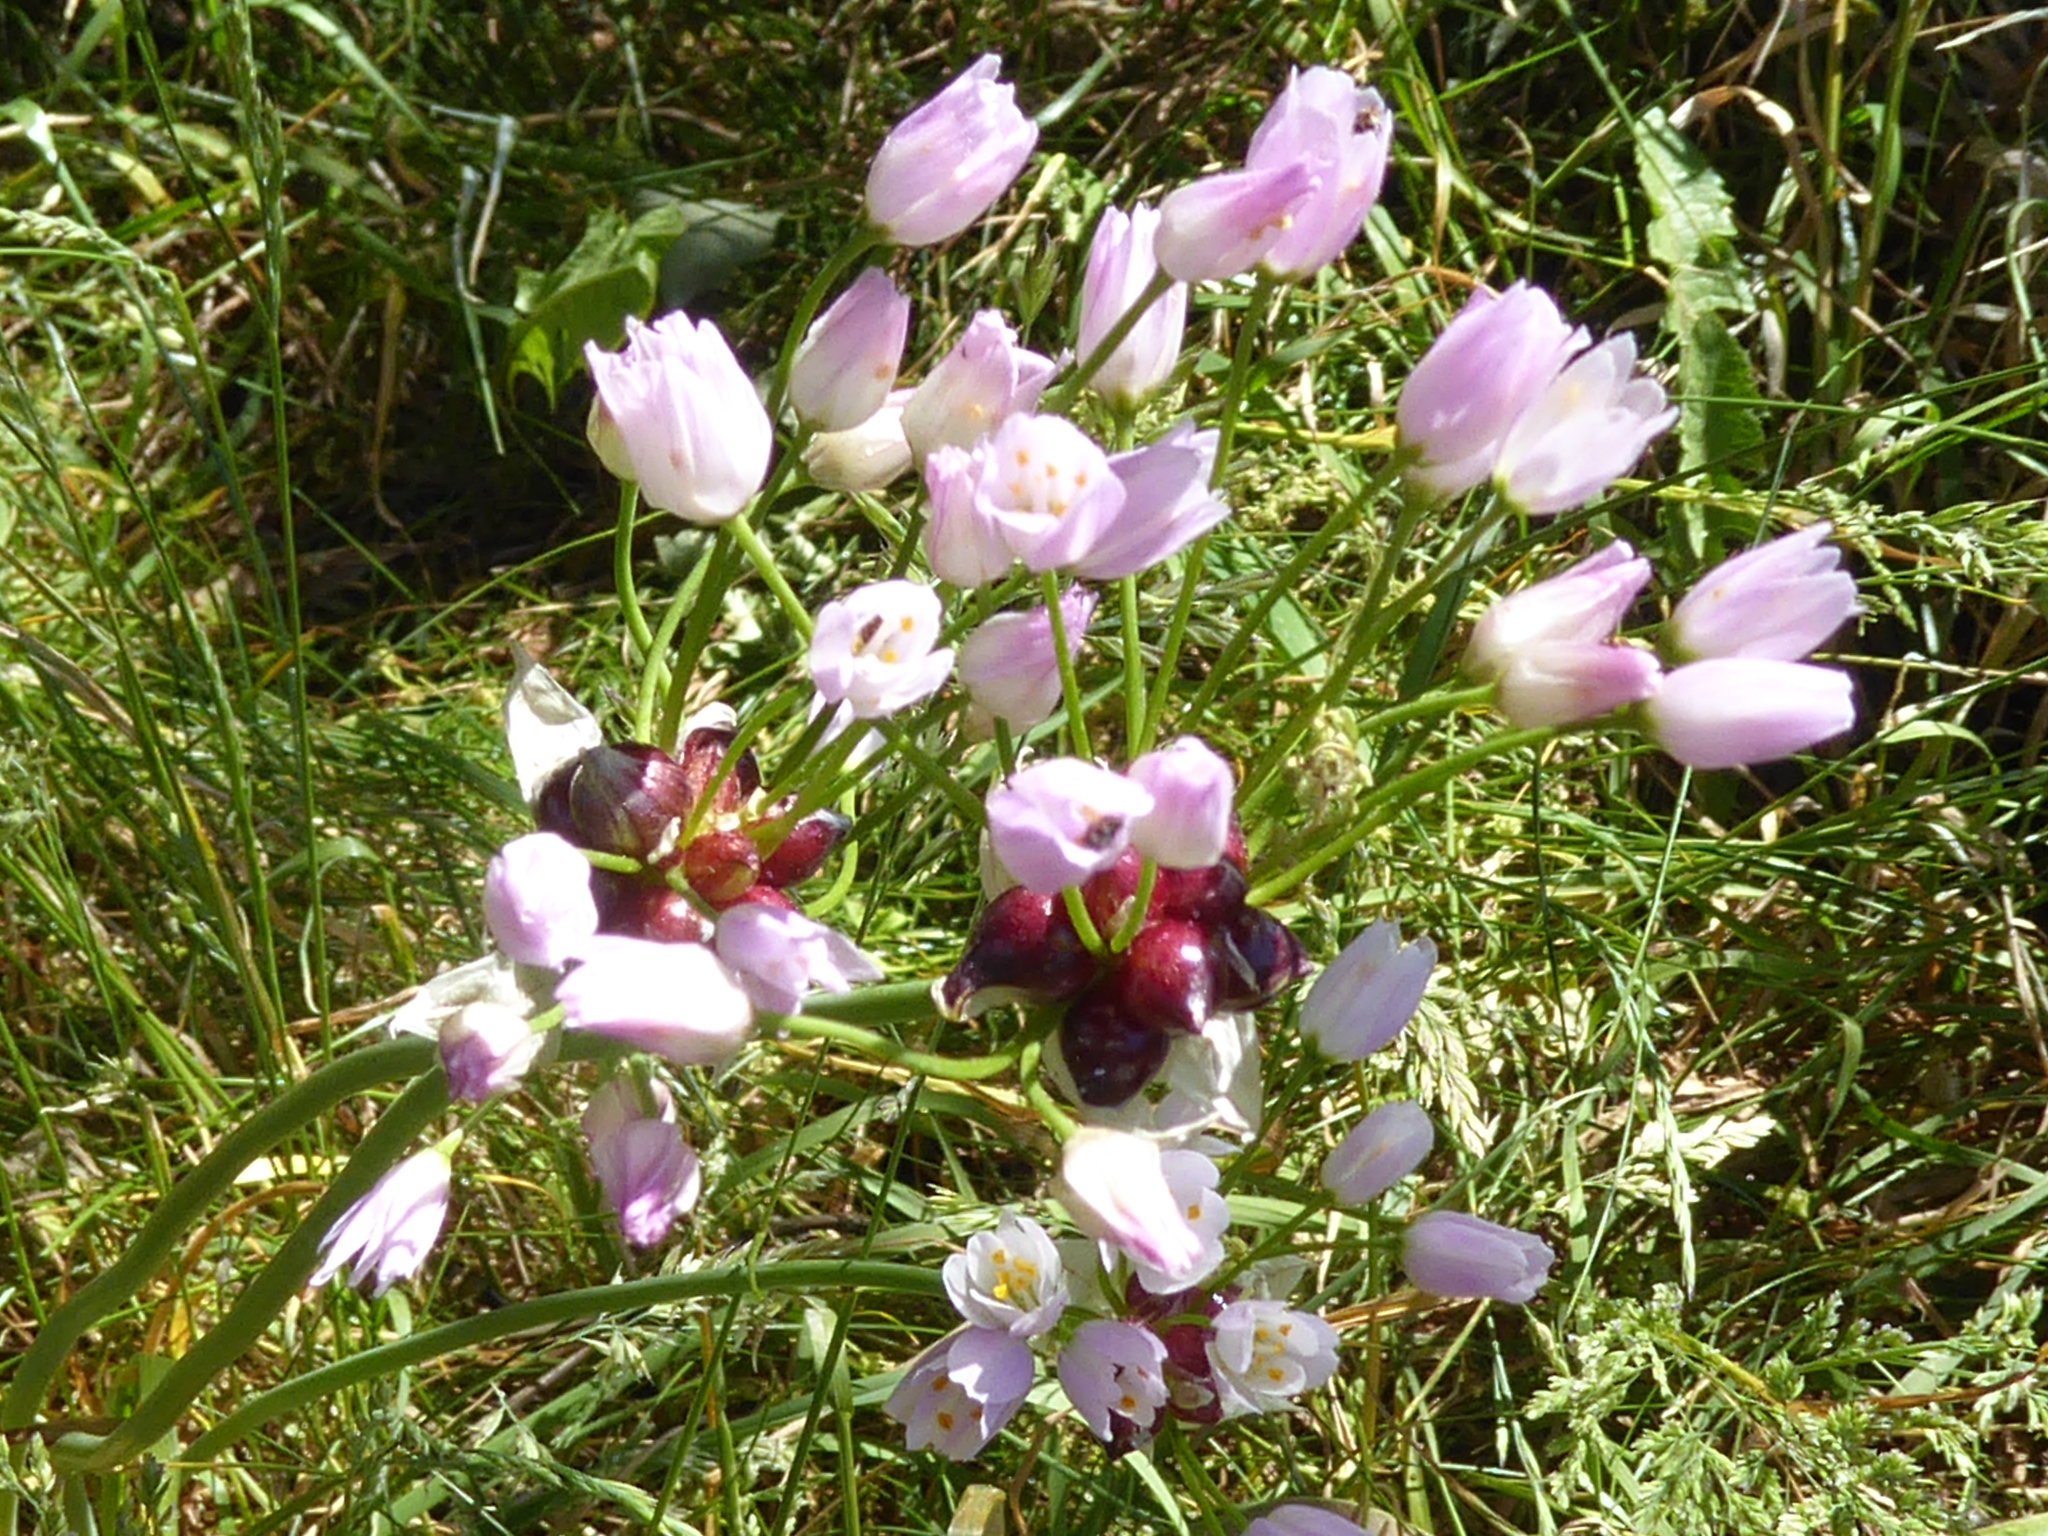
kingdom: Plantae
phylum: Tracheophyta
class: Liliopsida
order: Asparagales
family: Amaryllidaceae
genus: Allium
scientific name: Allium roseum
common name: Rosy garlic
